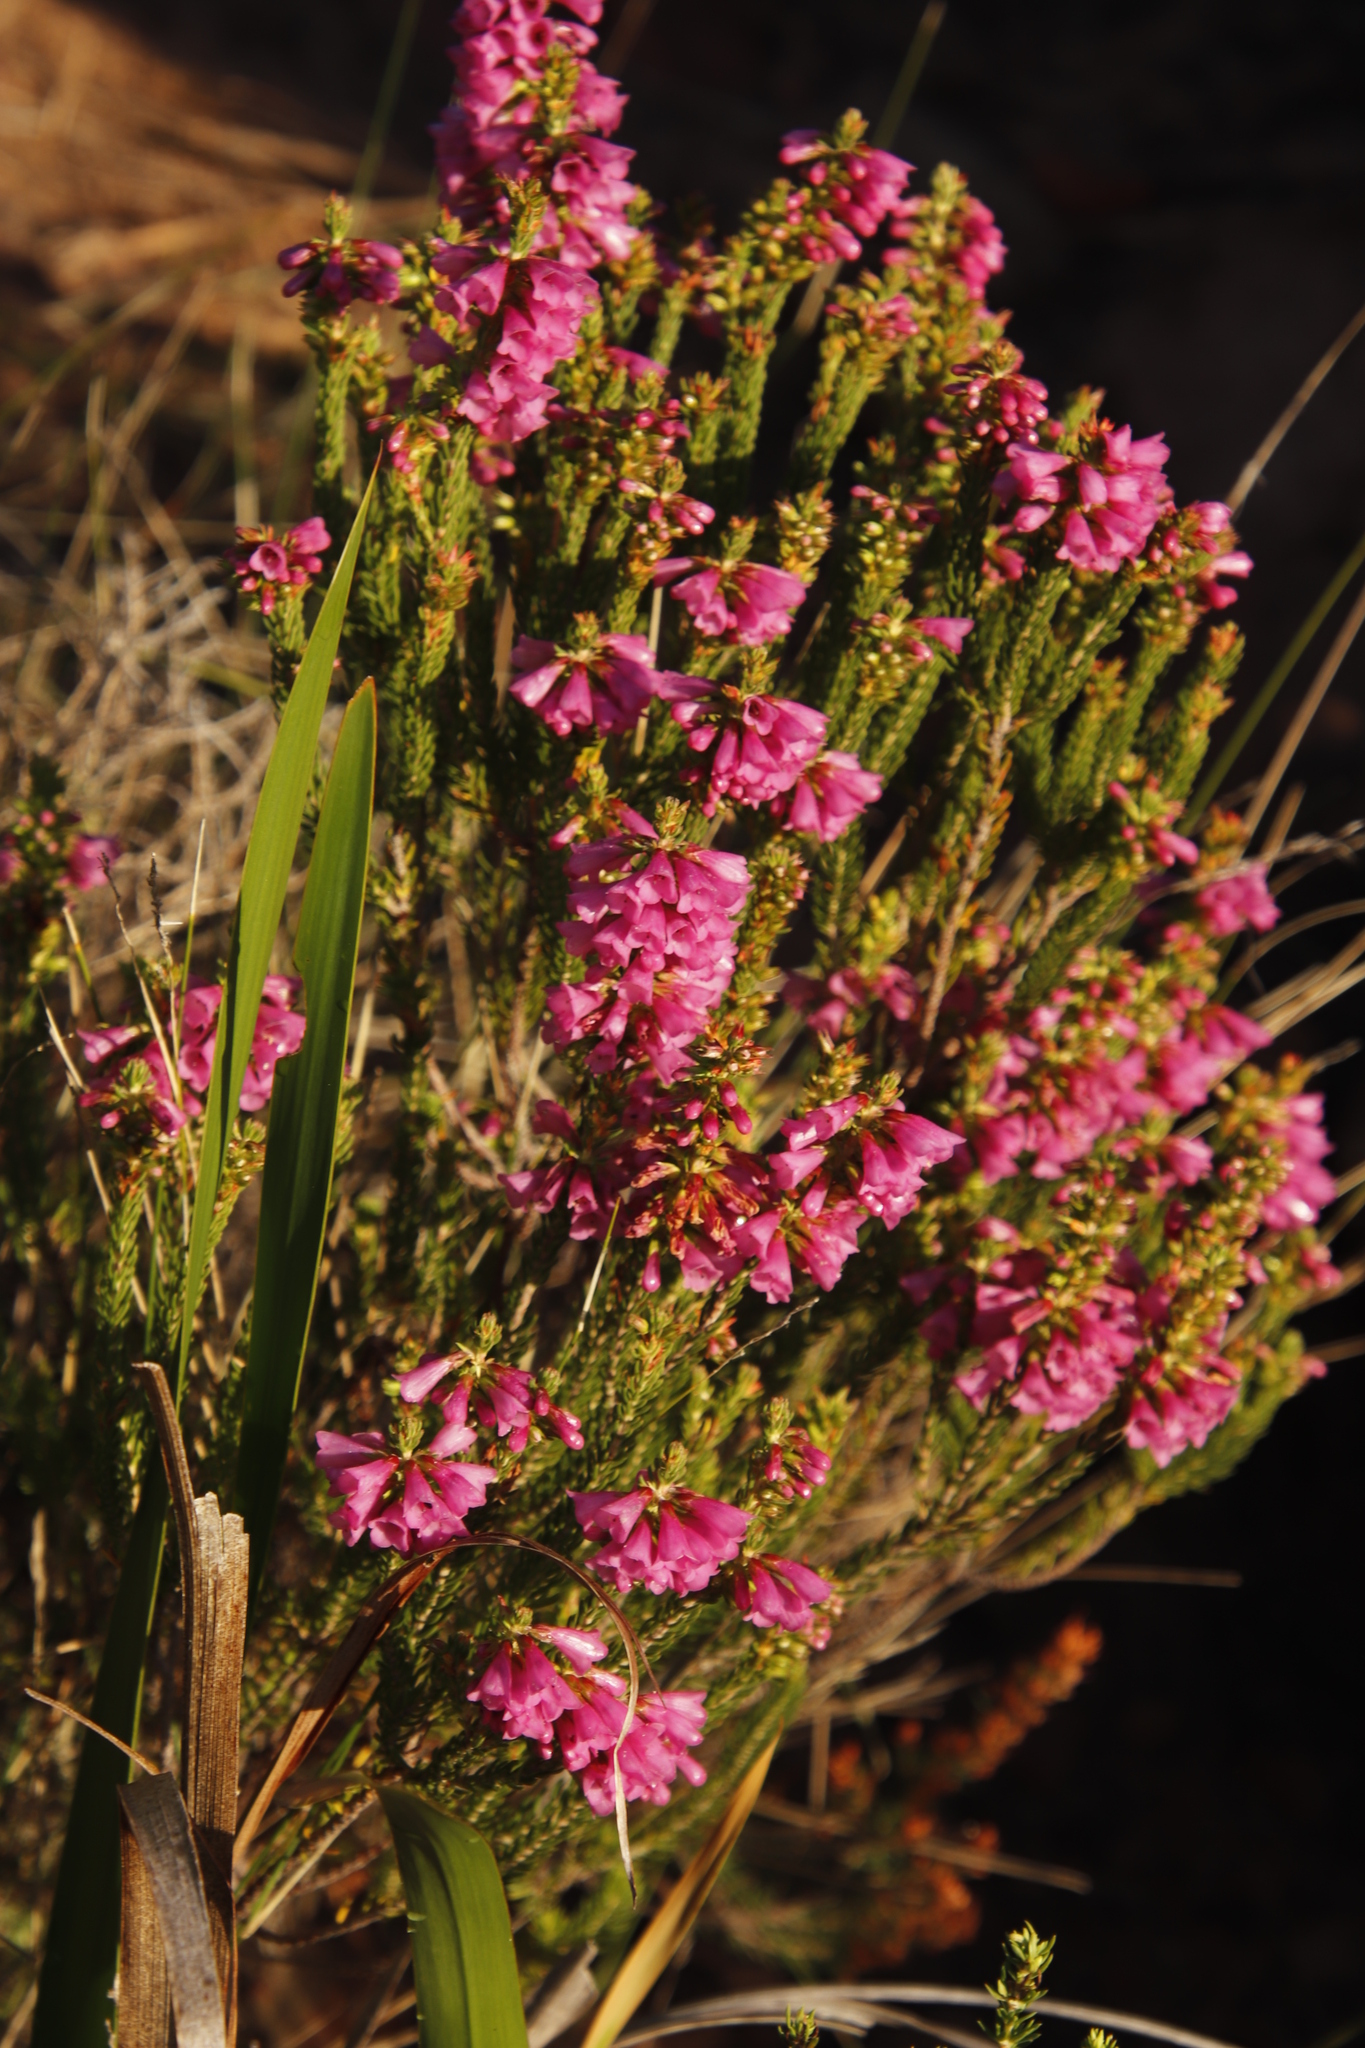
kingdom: Plantae
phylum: Tracheophyta
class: Magnoliopsida
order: Ericales
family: Ericaceae
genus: Erica
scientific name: Erica abietina
